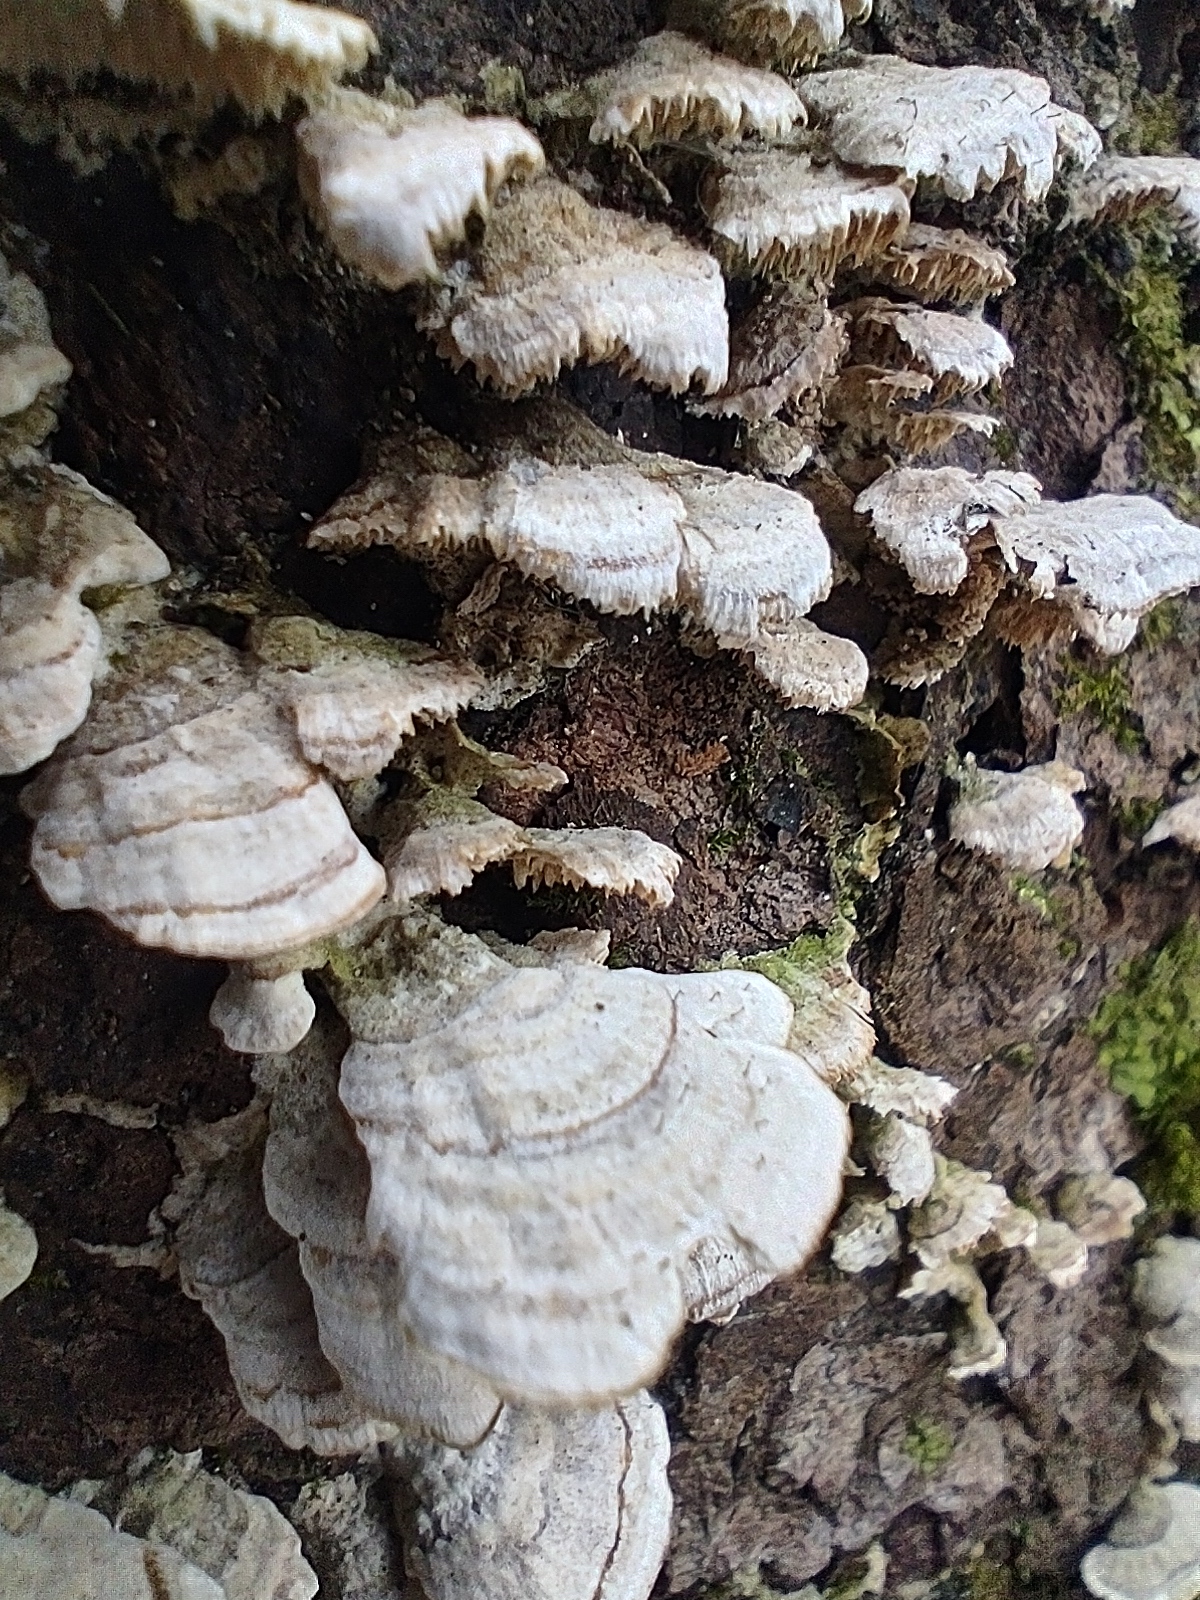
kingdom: Fungi
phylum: Ascomycota
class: Eurotiomycetes
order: Mycocaliciales
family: Mycocaliciaceae
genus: Phaeocalicium
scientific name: Phaeocalicium polyporaeum
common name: Fairy pins
